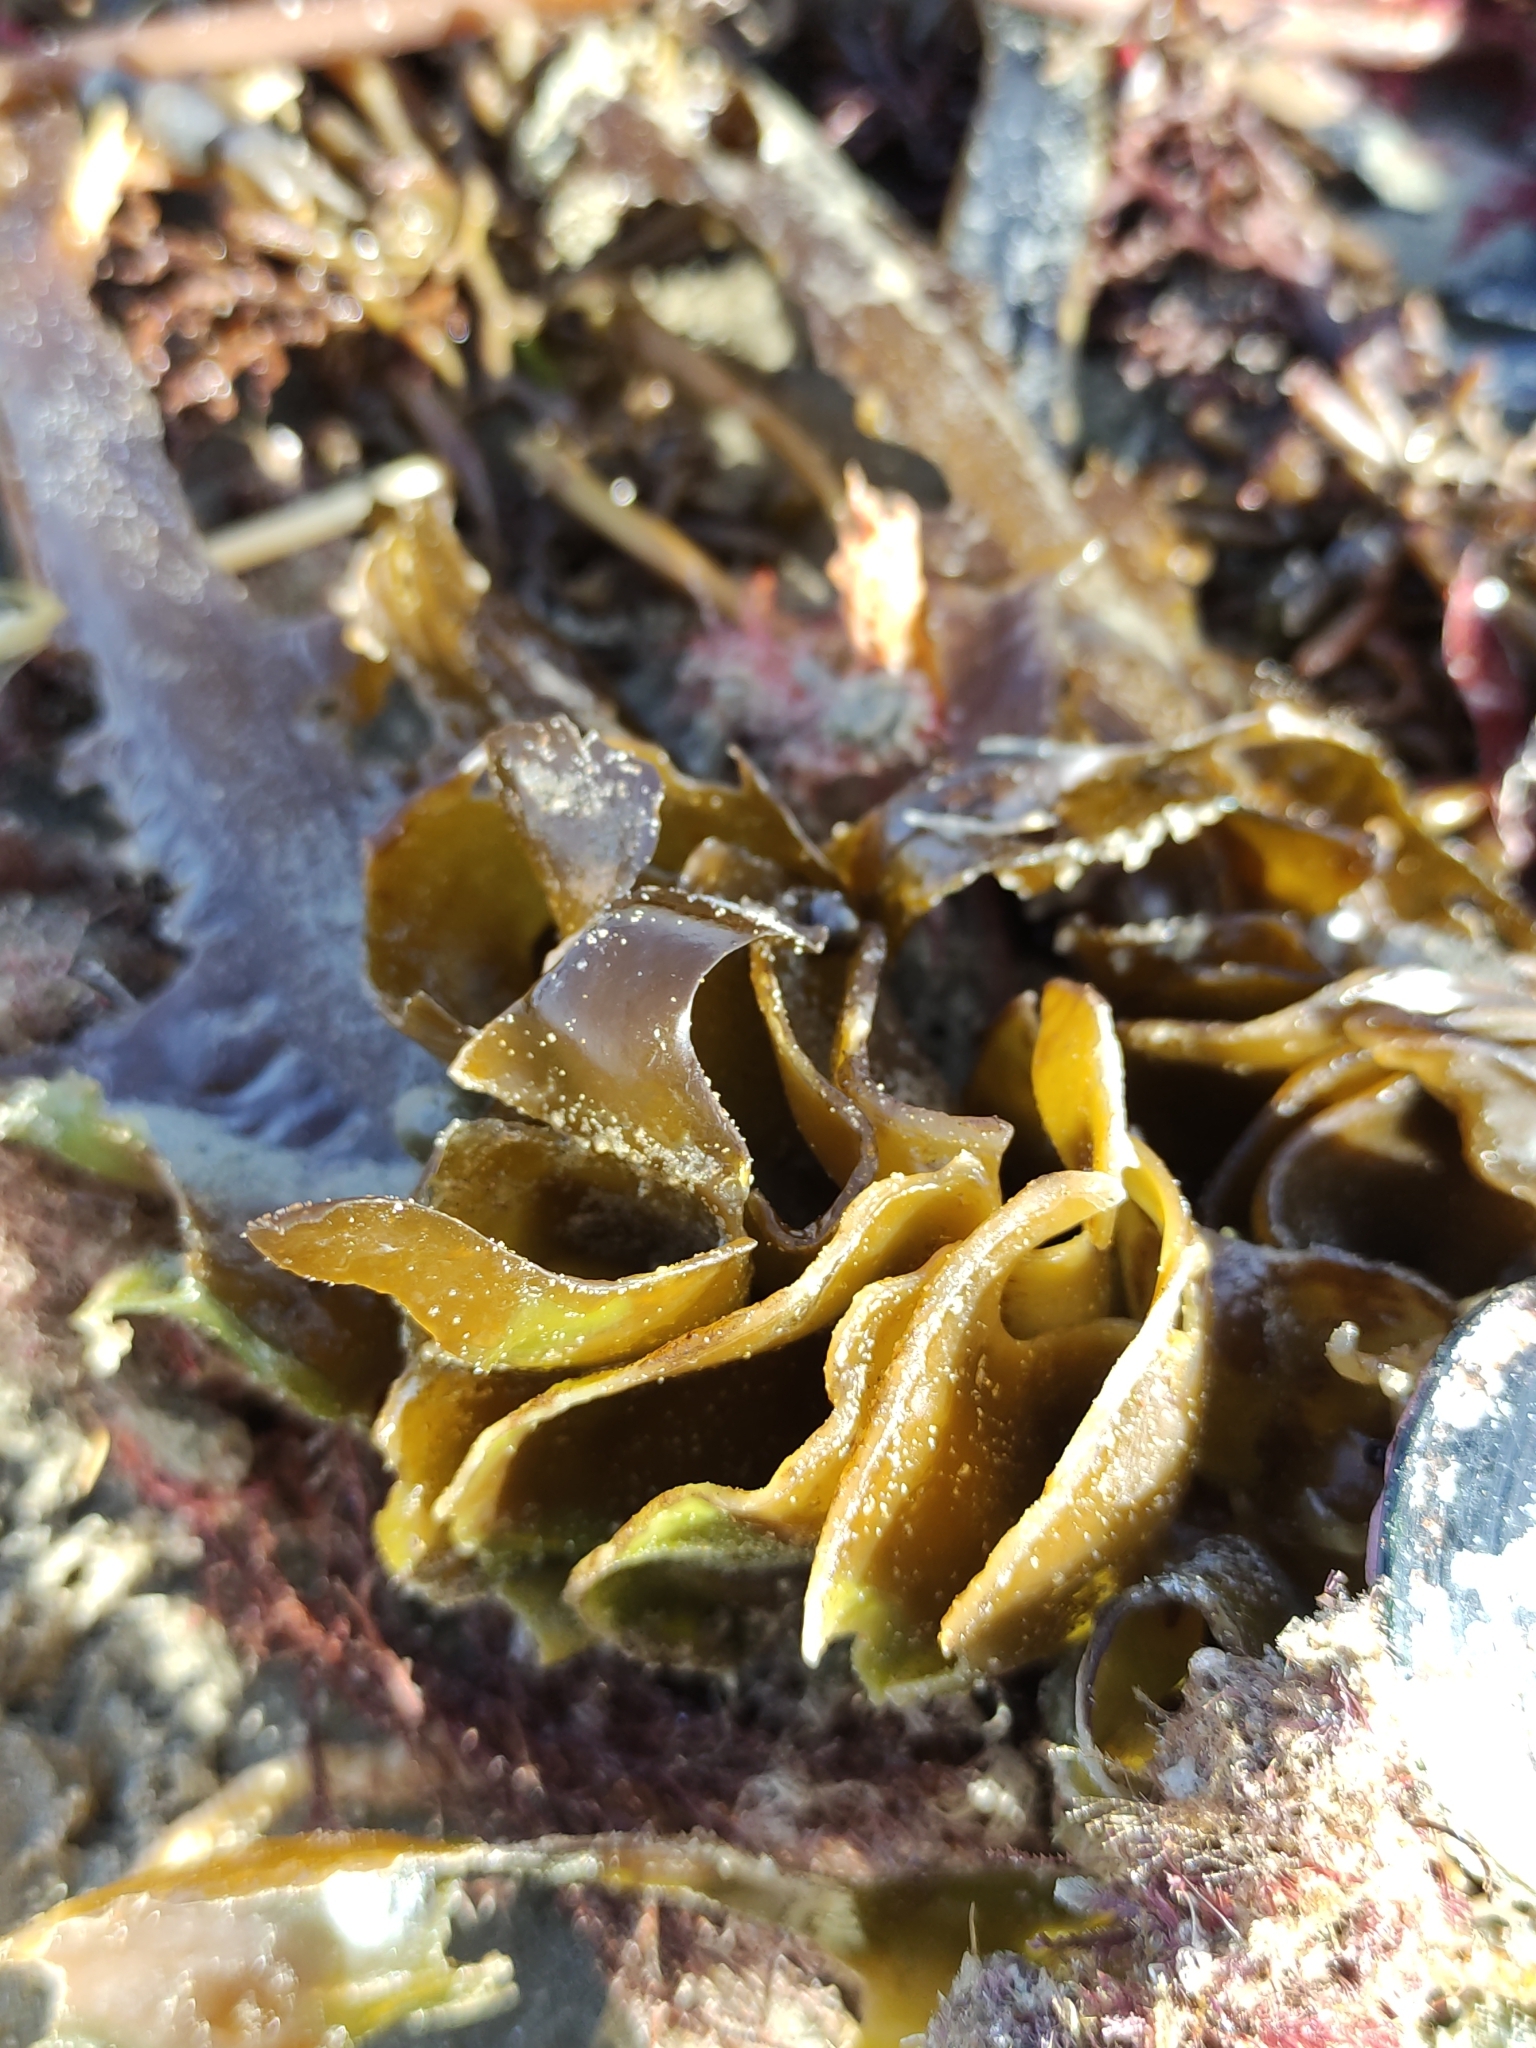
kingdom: Chromista
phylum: Ochrophyta
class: Phaeophyceae
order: Laminariales
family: Alariaceae
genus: Undaria
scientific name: Undaria pinnatifida
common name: Asian kelp
